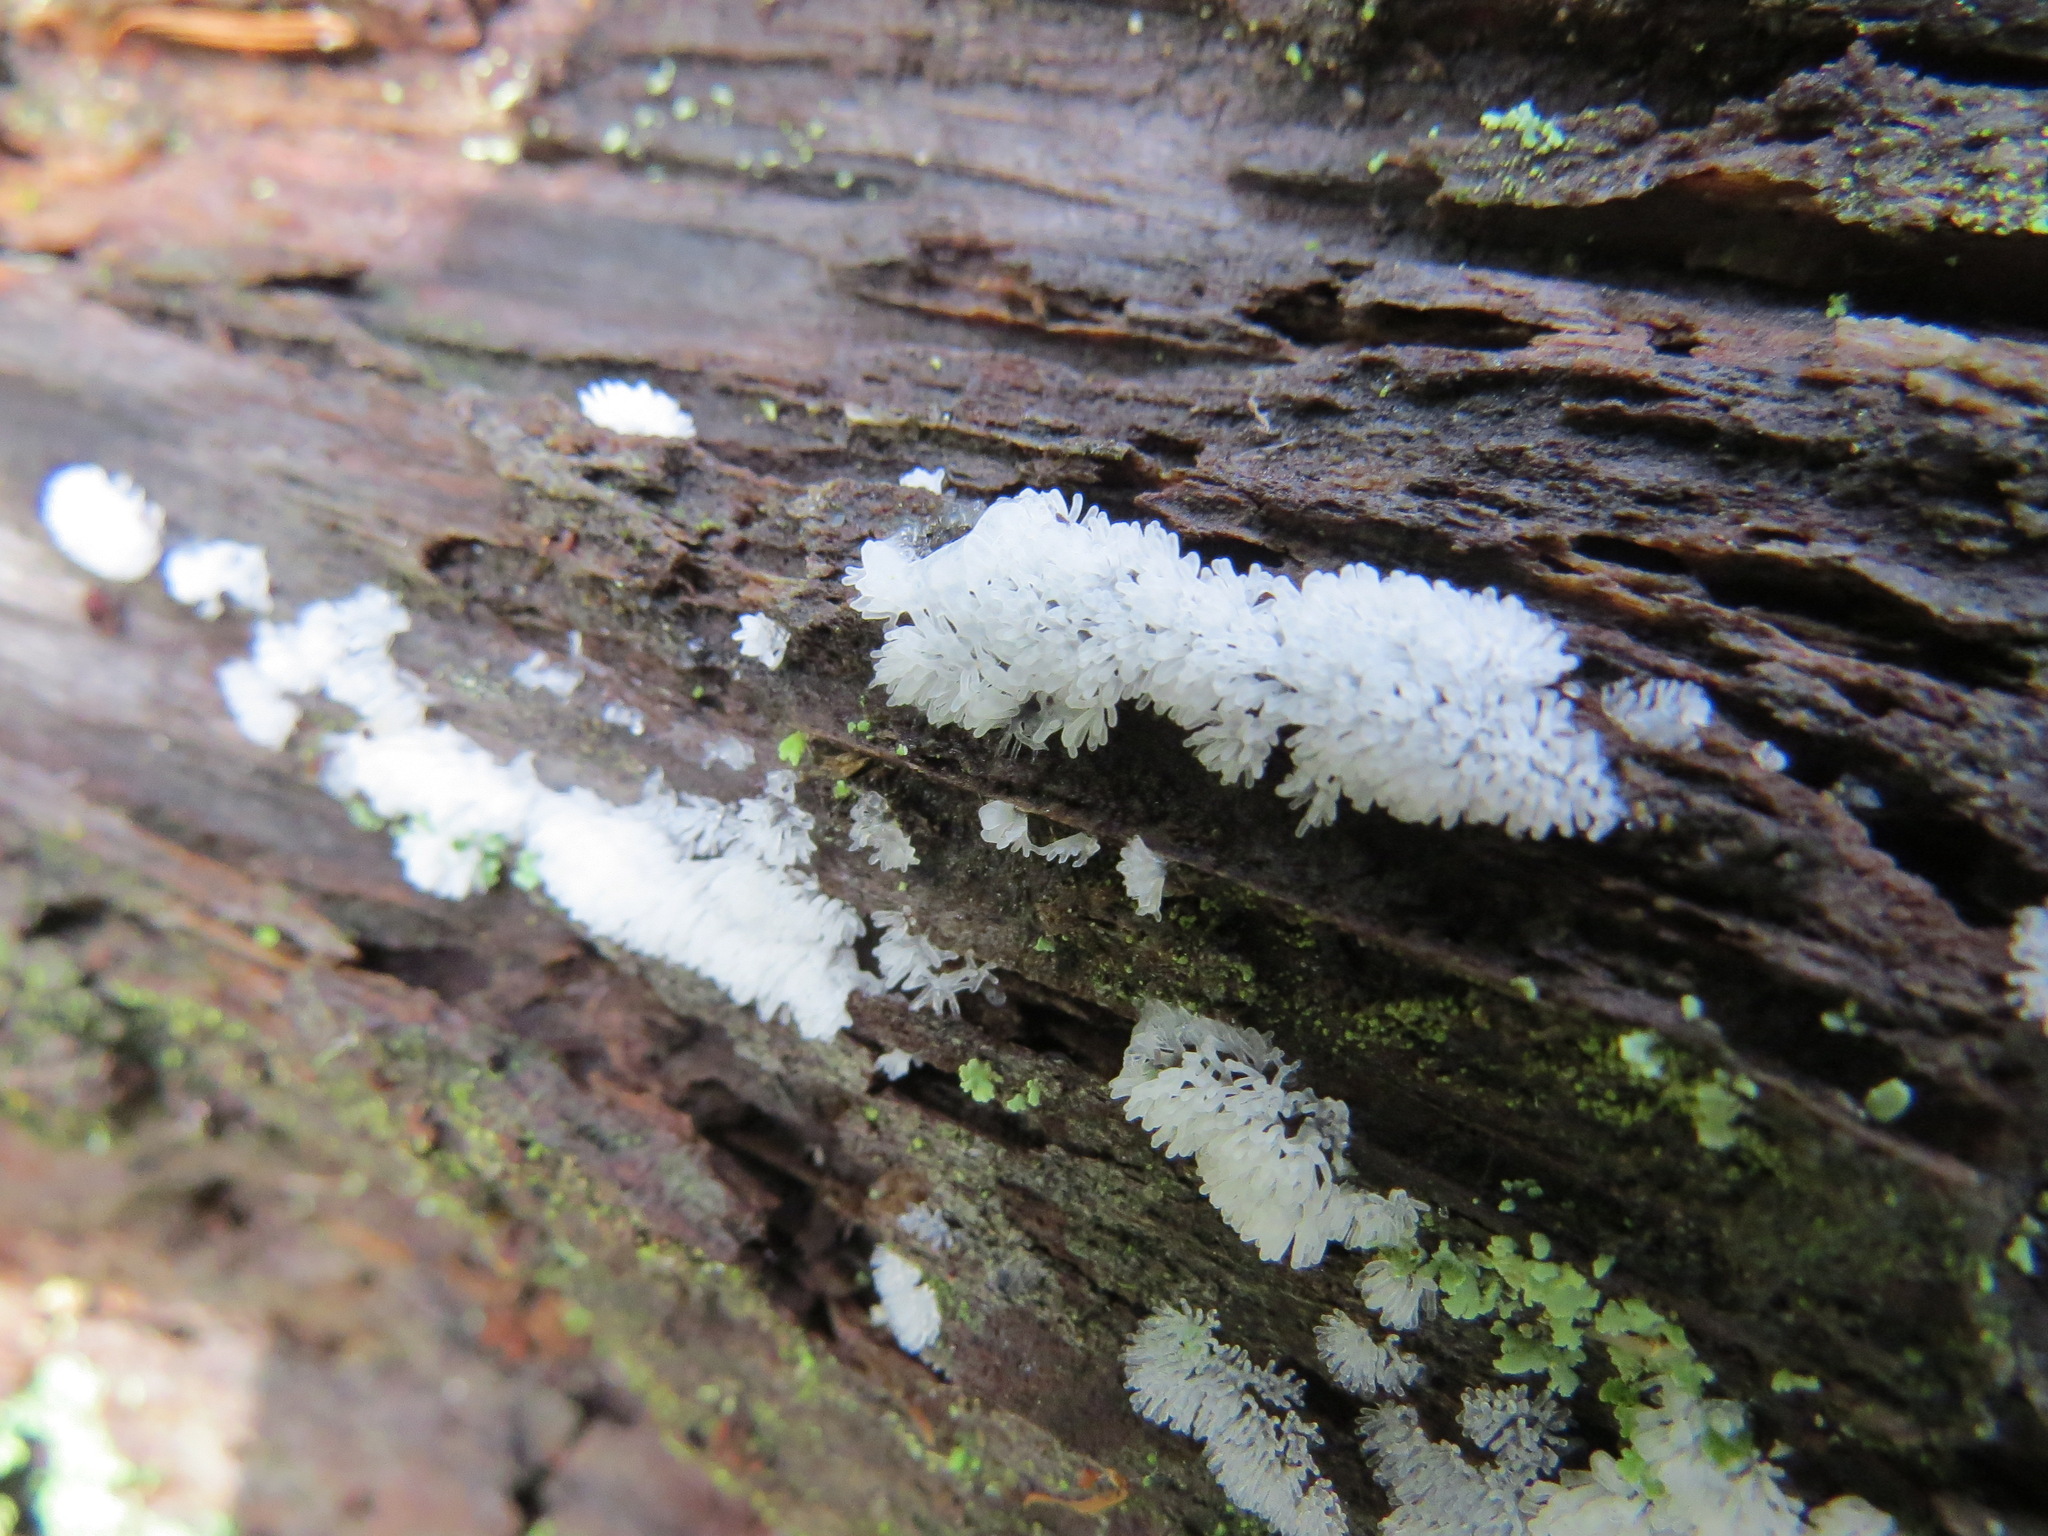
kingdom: Protozoa
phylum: Mycetozoa
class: Protosteliomycetes
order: Ceratiomyxales
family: Ceratiomyxaceae
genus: Ceratiomyxa
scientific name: Ceratiomyxa fruticulosa
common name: Honeycomb coral slime mold
